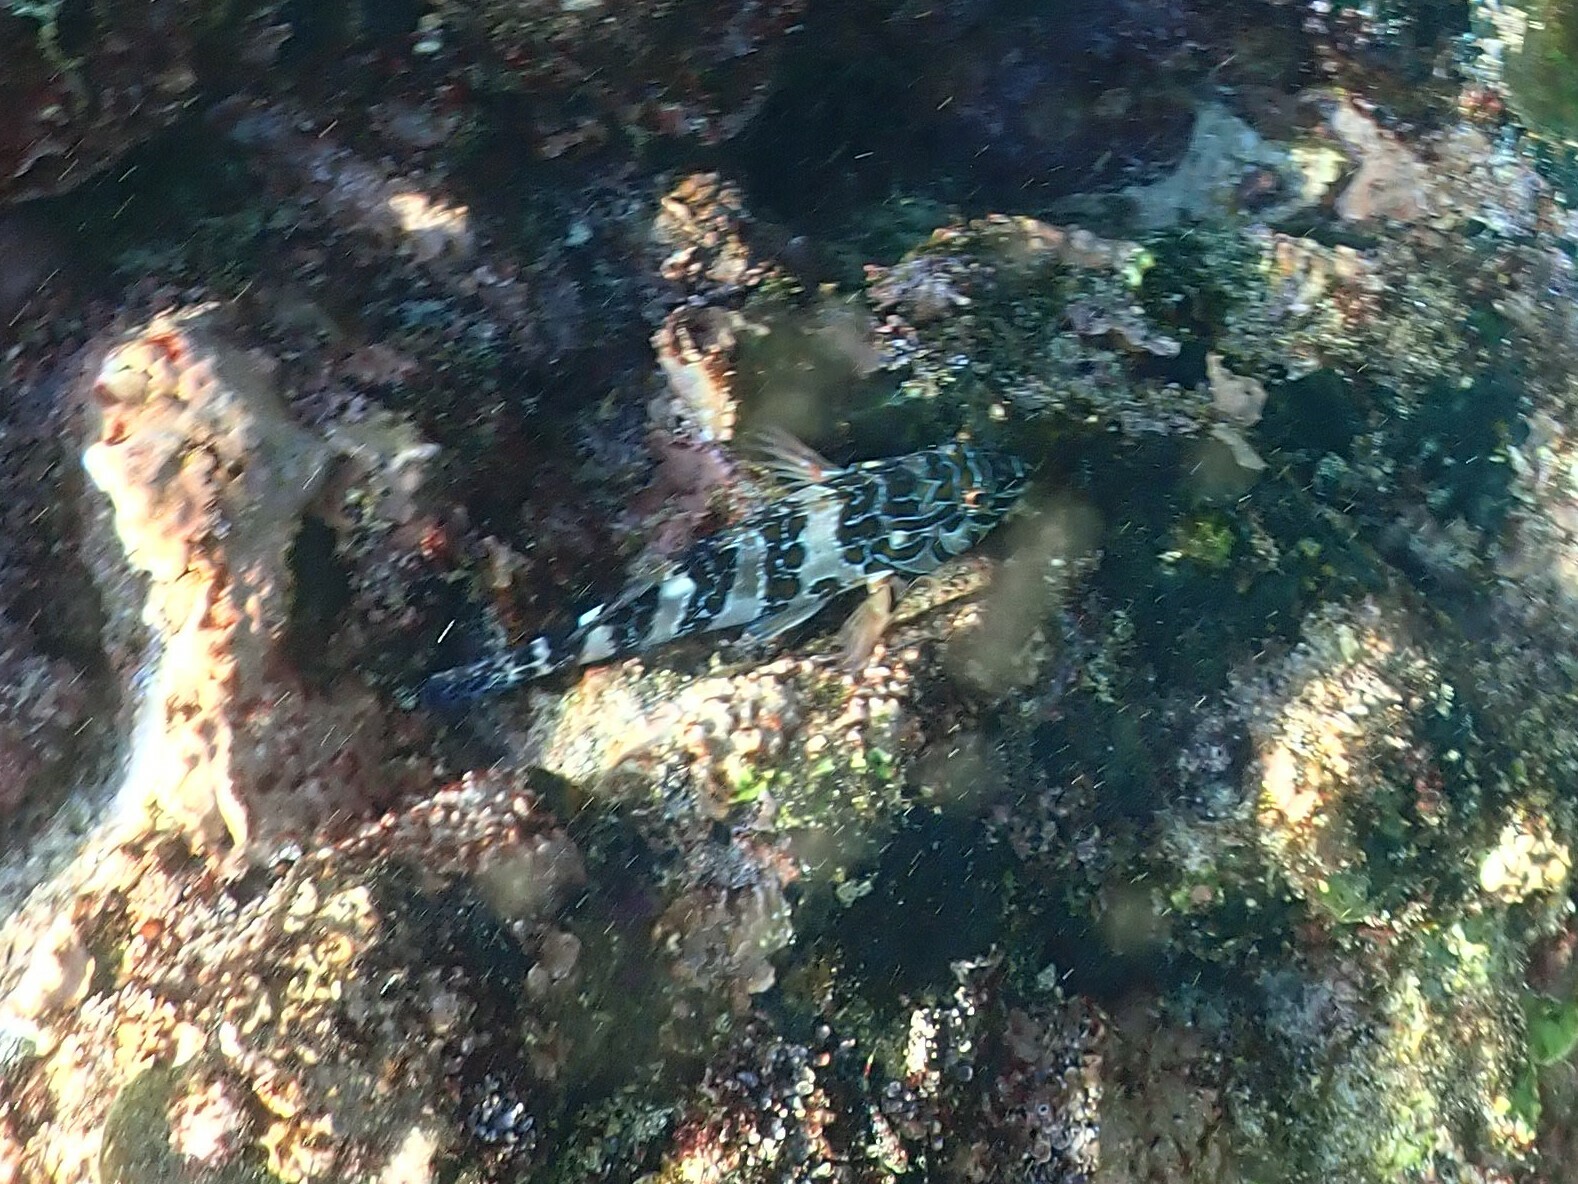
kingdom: Animalia
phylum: Chordata
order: Perciformes
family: Cirrhitidae
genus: Cirrhitus
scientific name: Cirrhitus rivulatus
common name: Giant hawkfish
